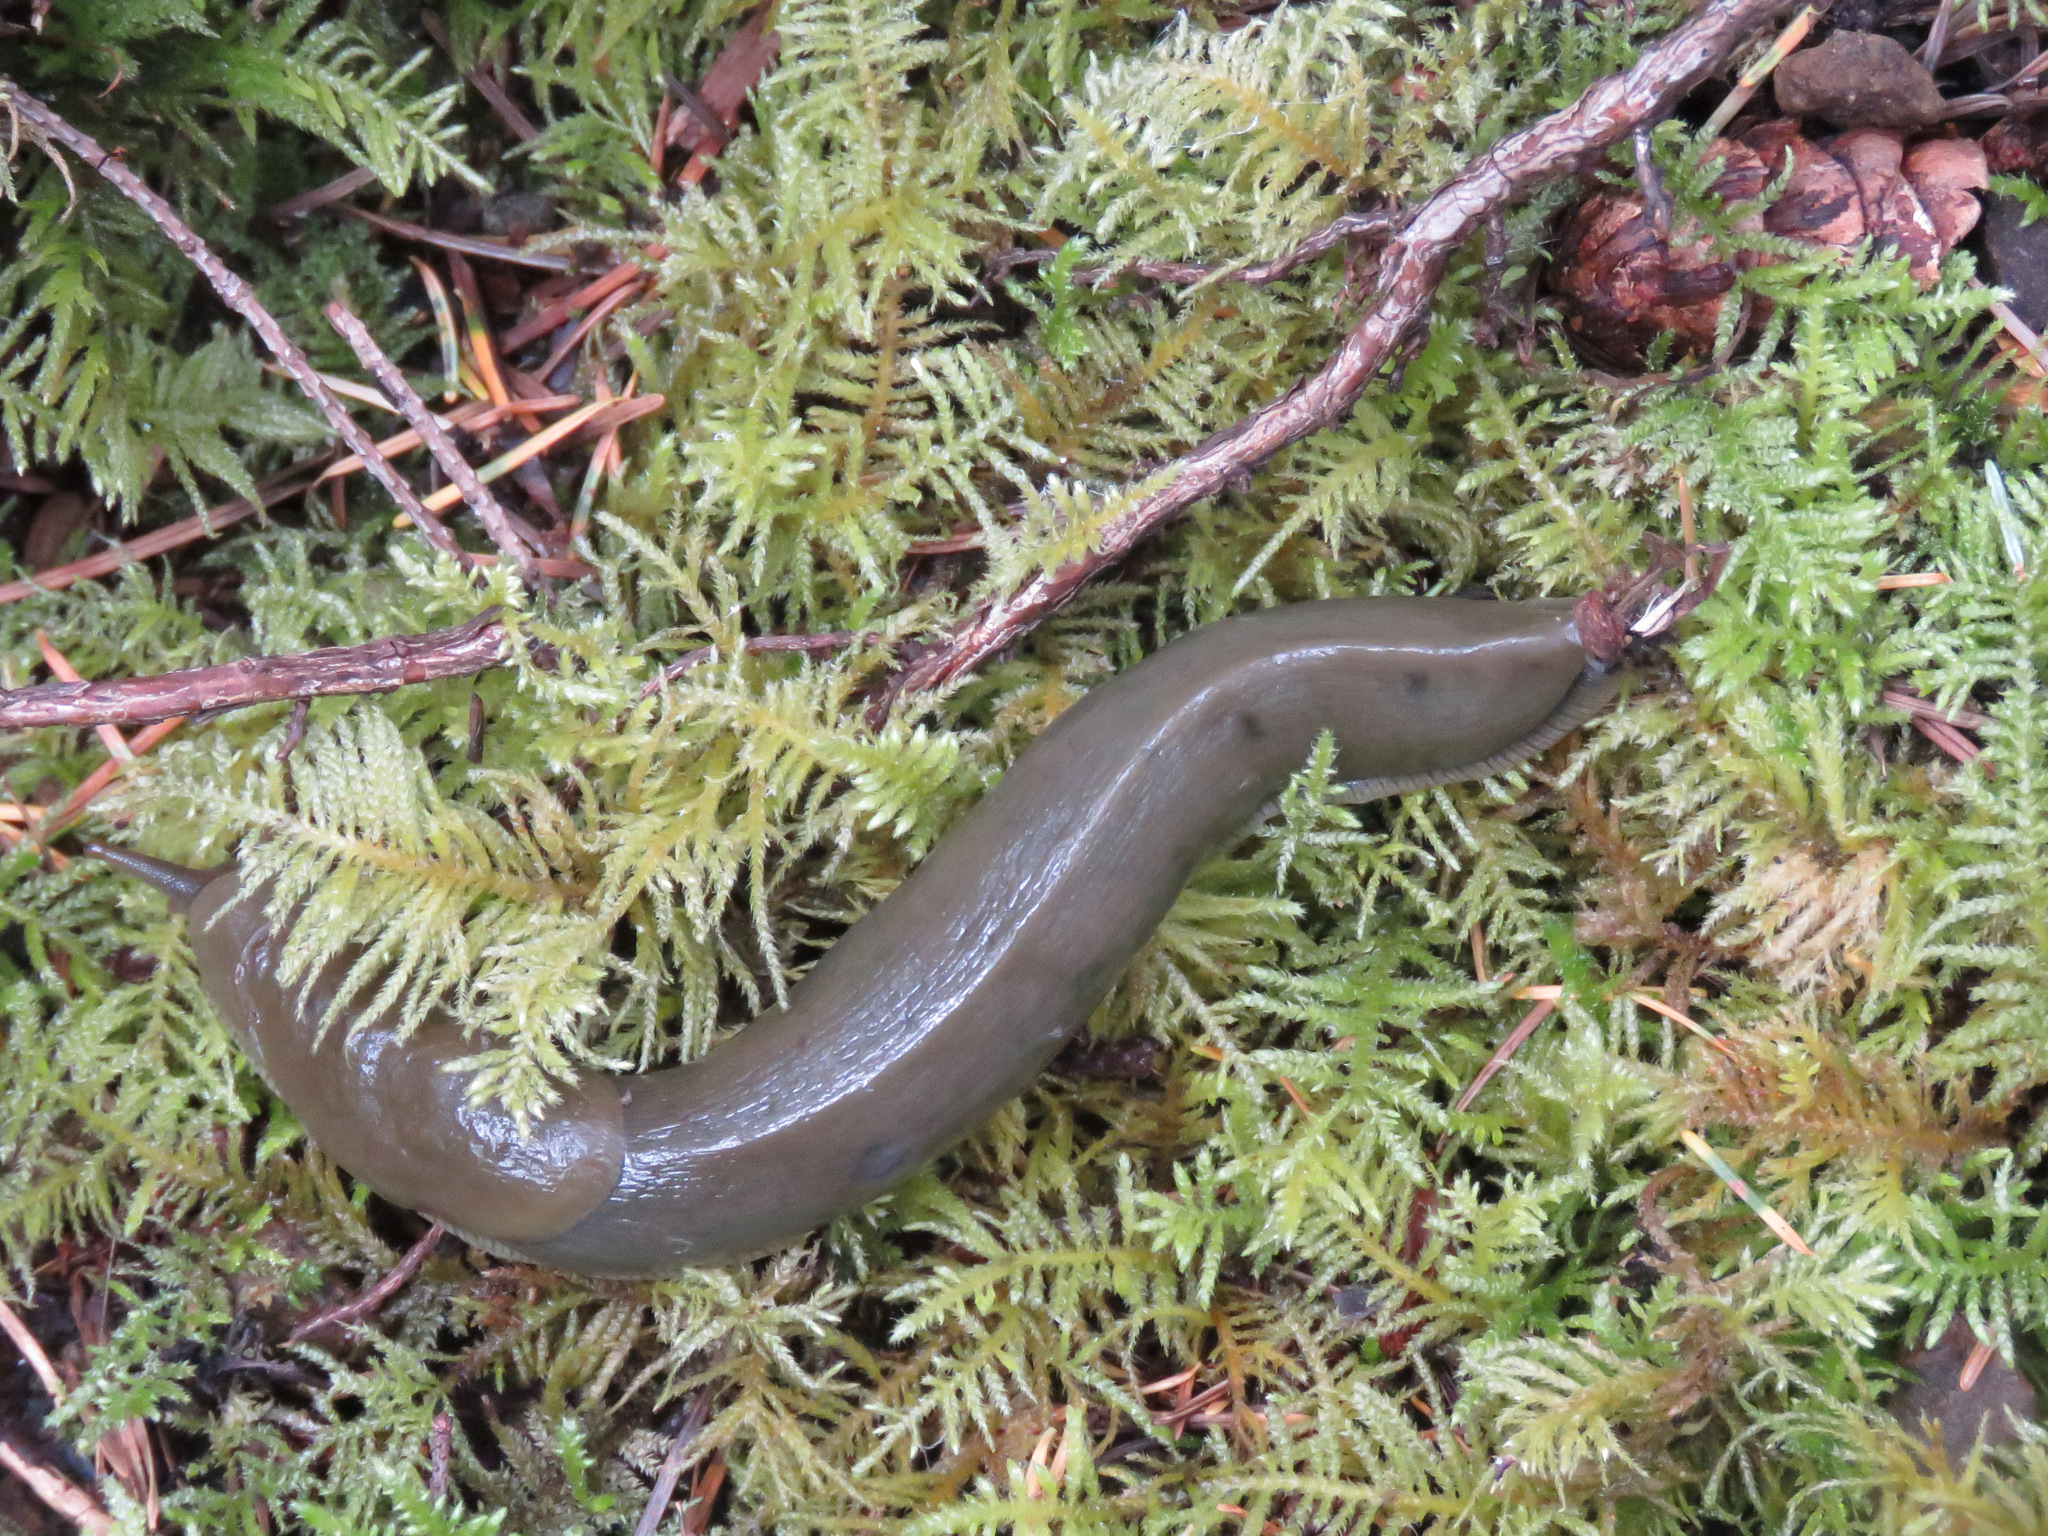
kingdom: Animalia
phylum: Mollusca
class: Gastropoda
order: Stylommatophora
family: Ariolimacidae
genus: Ariolimax
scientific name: Ariolimax columbianus
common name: Pacific banana slug
